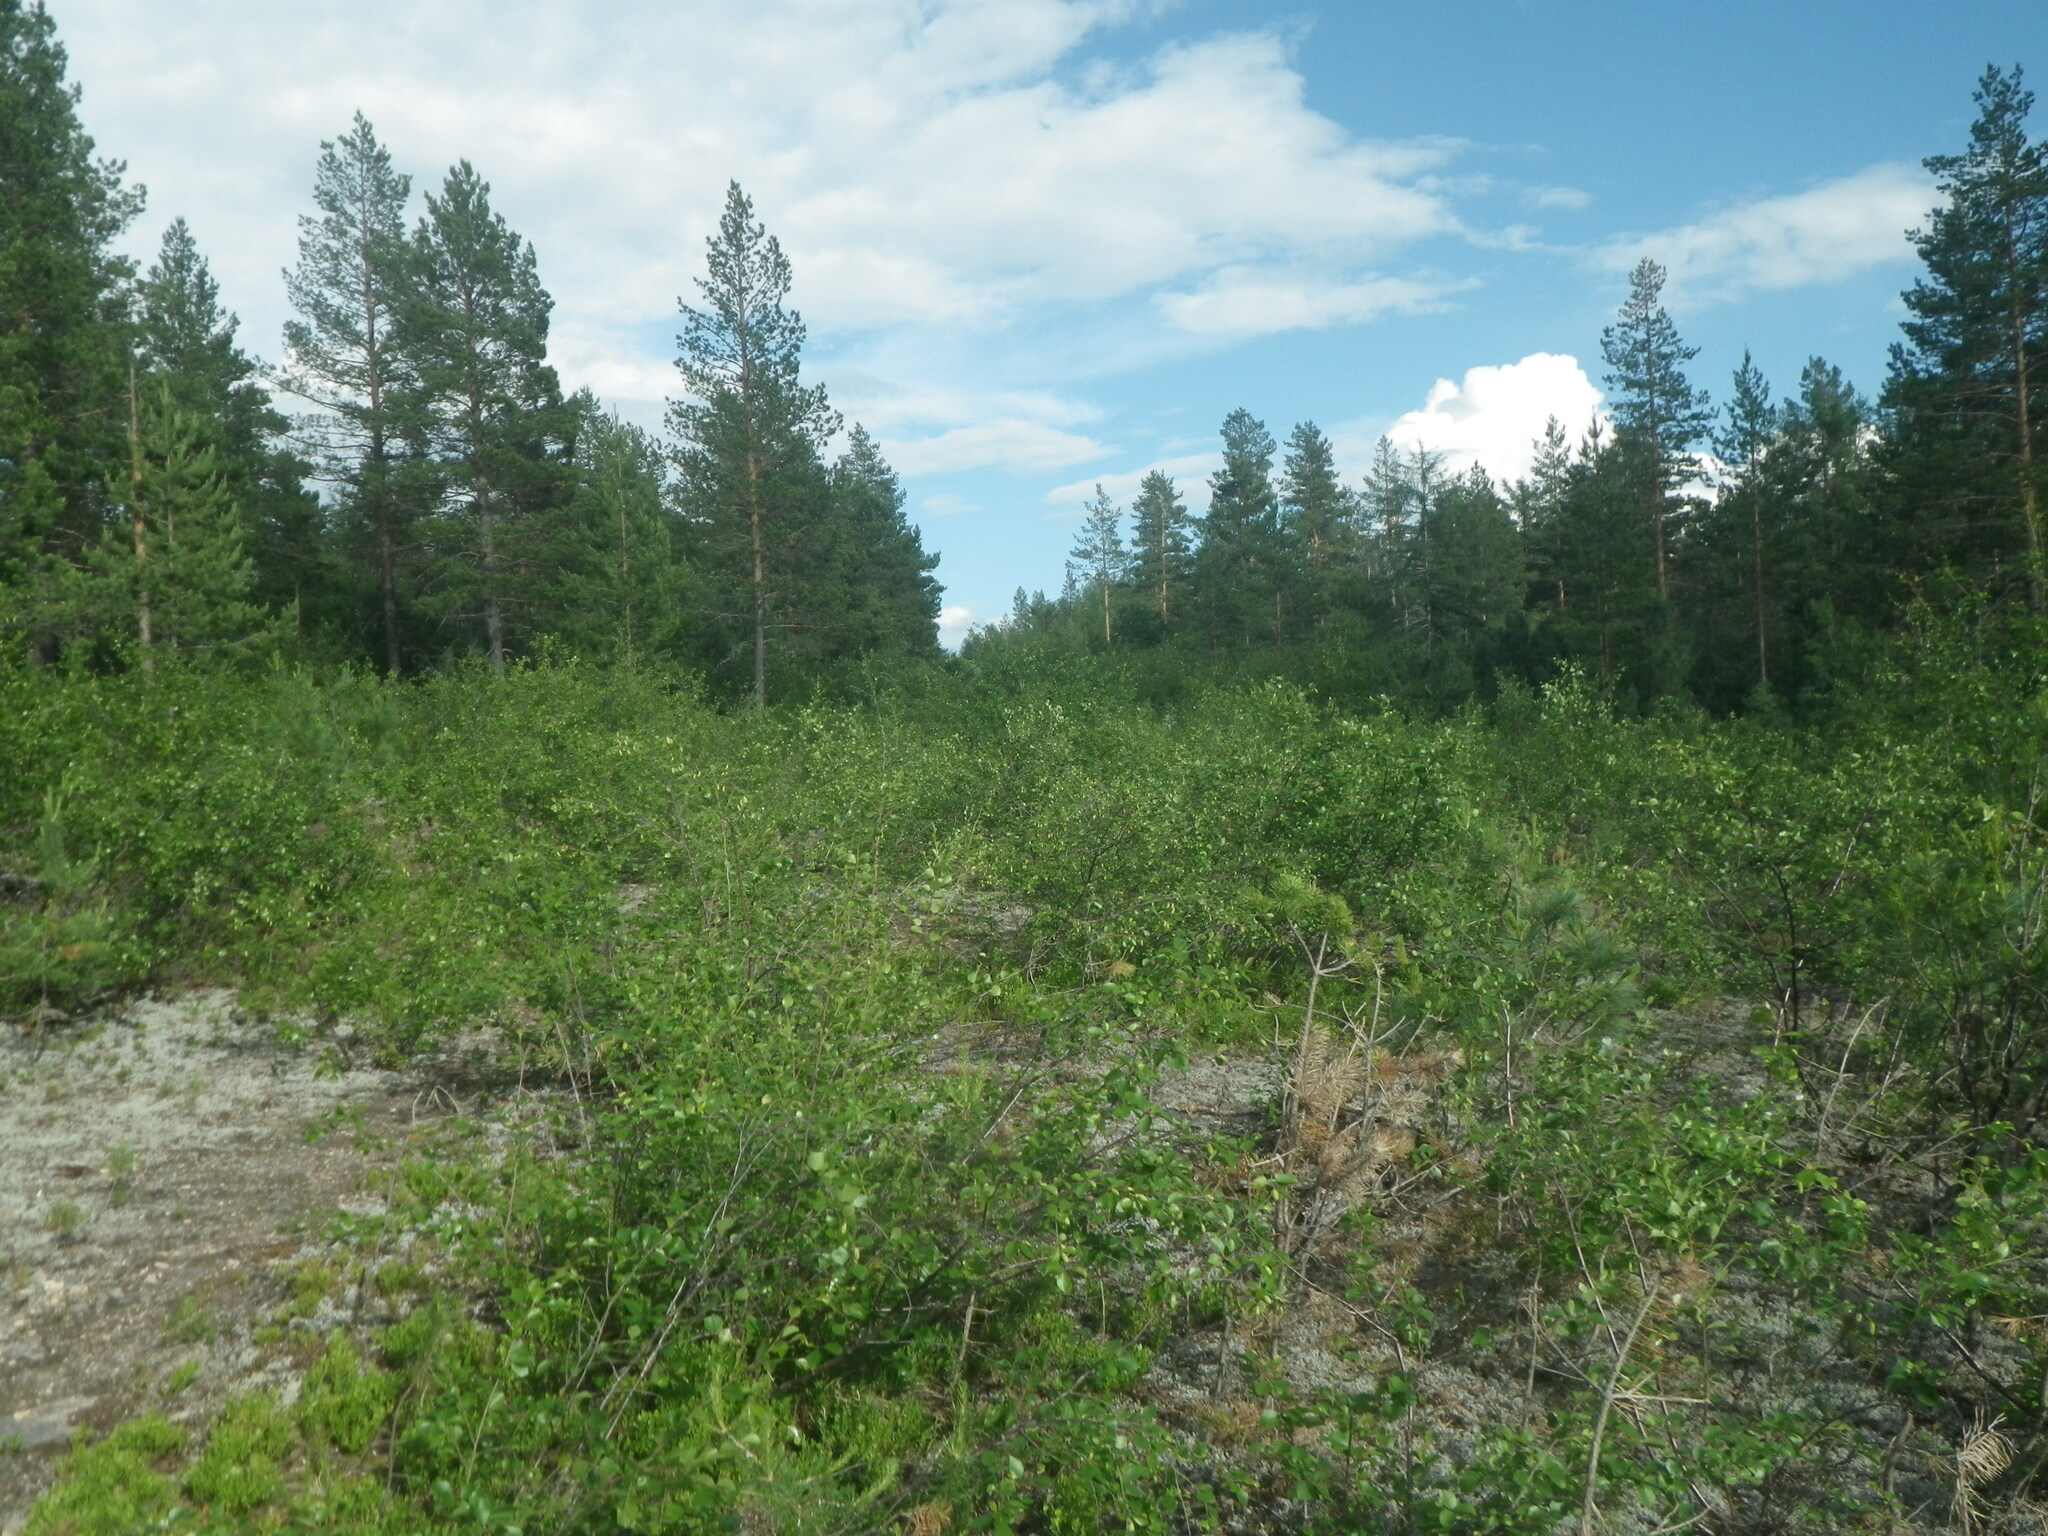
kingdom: Plantae
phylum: Tracheophyta
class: Pinopsida
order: Pinales
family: Pinaceae
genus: Pinus
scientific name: Pinus sylvestris
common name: Scots pine
